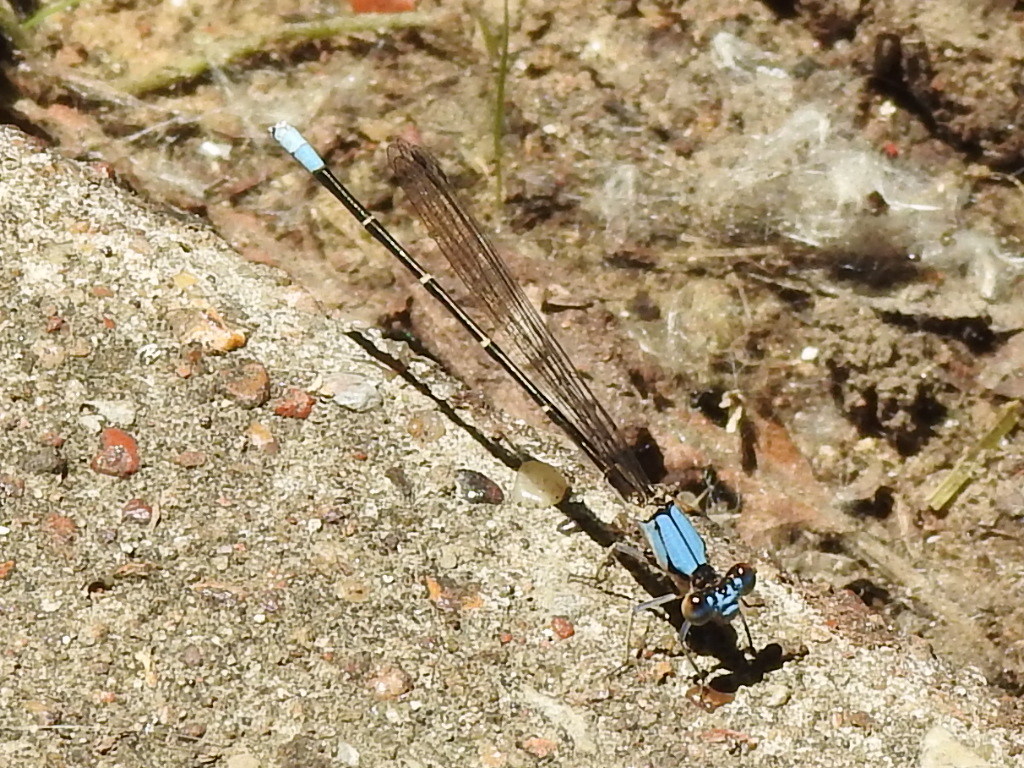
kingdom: Animalia
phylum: Arthropoda
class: Insecta
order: Odonata
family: Coenagrionidae
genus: Argia
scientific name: Argia apicalis
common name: Blue-fronted dancer
